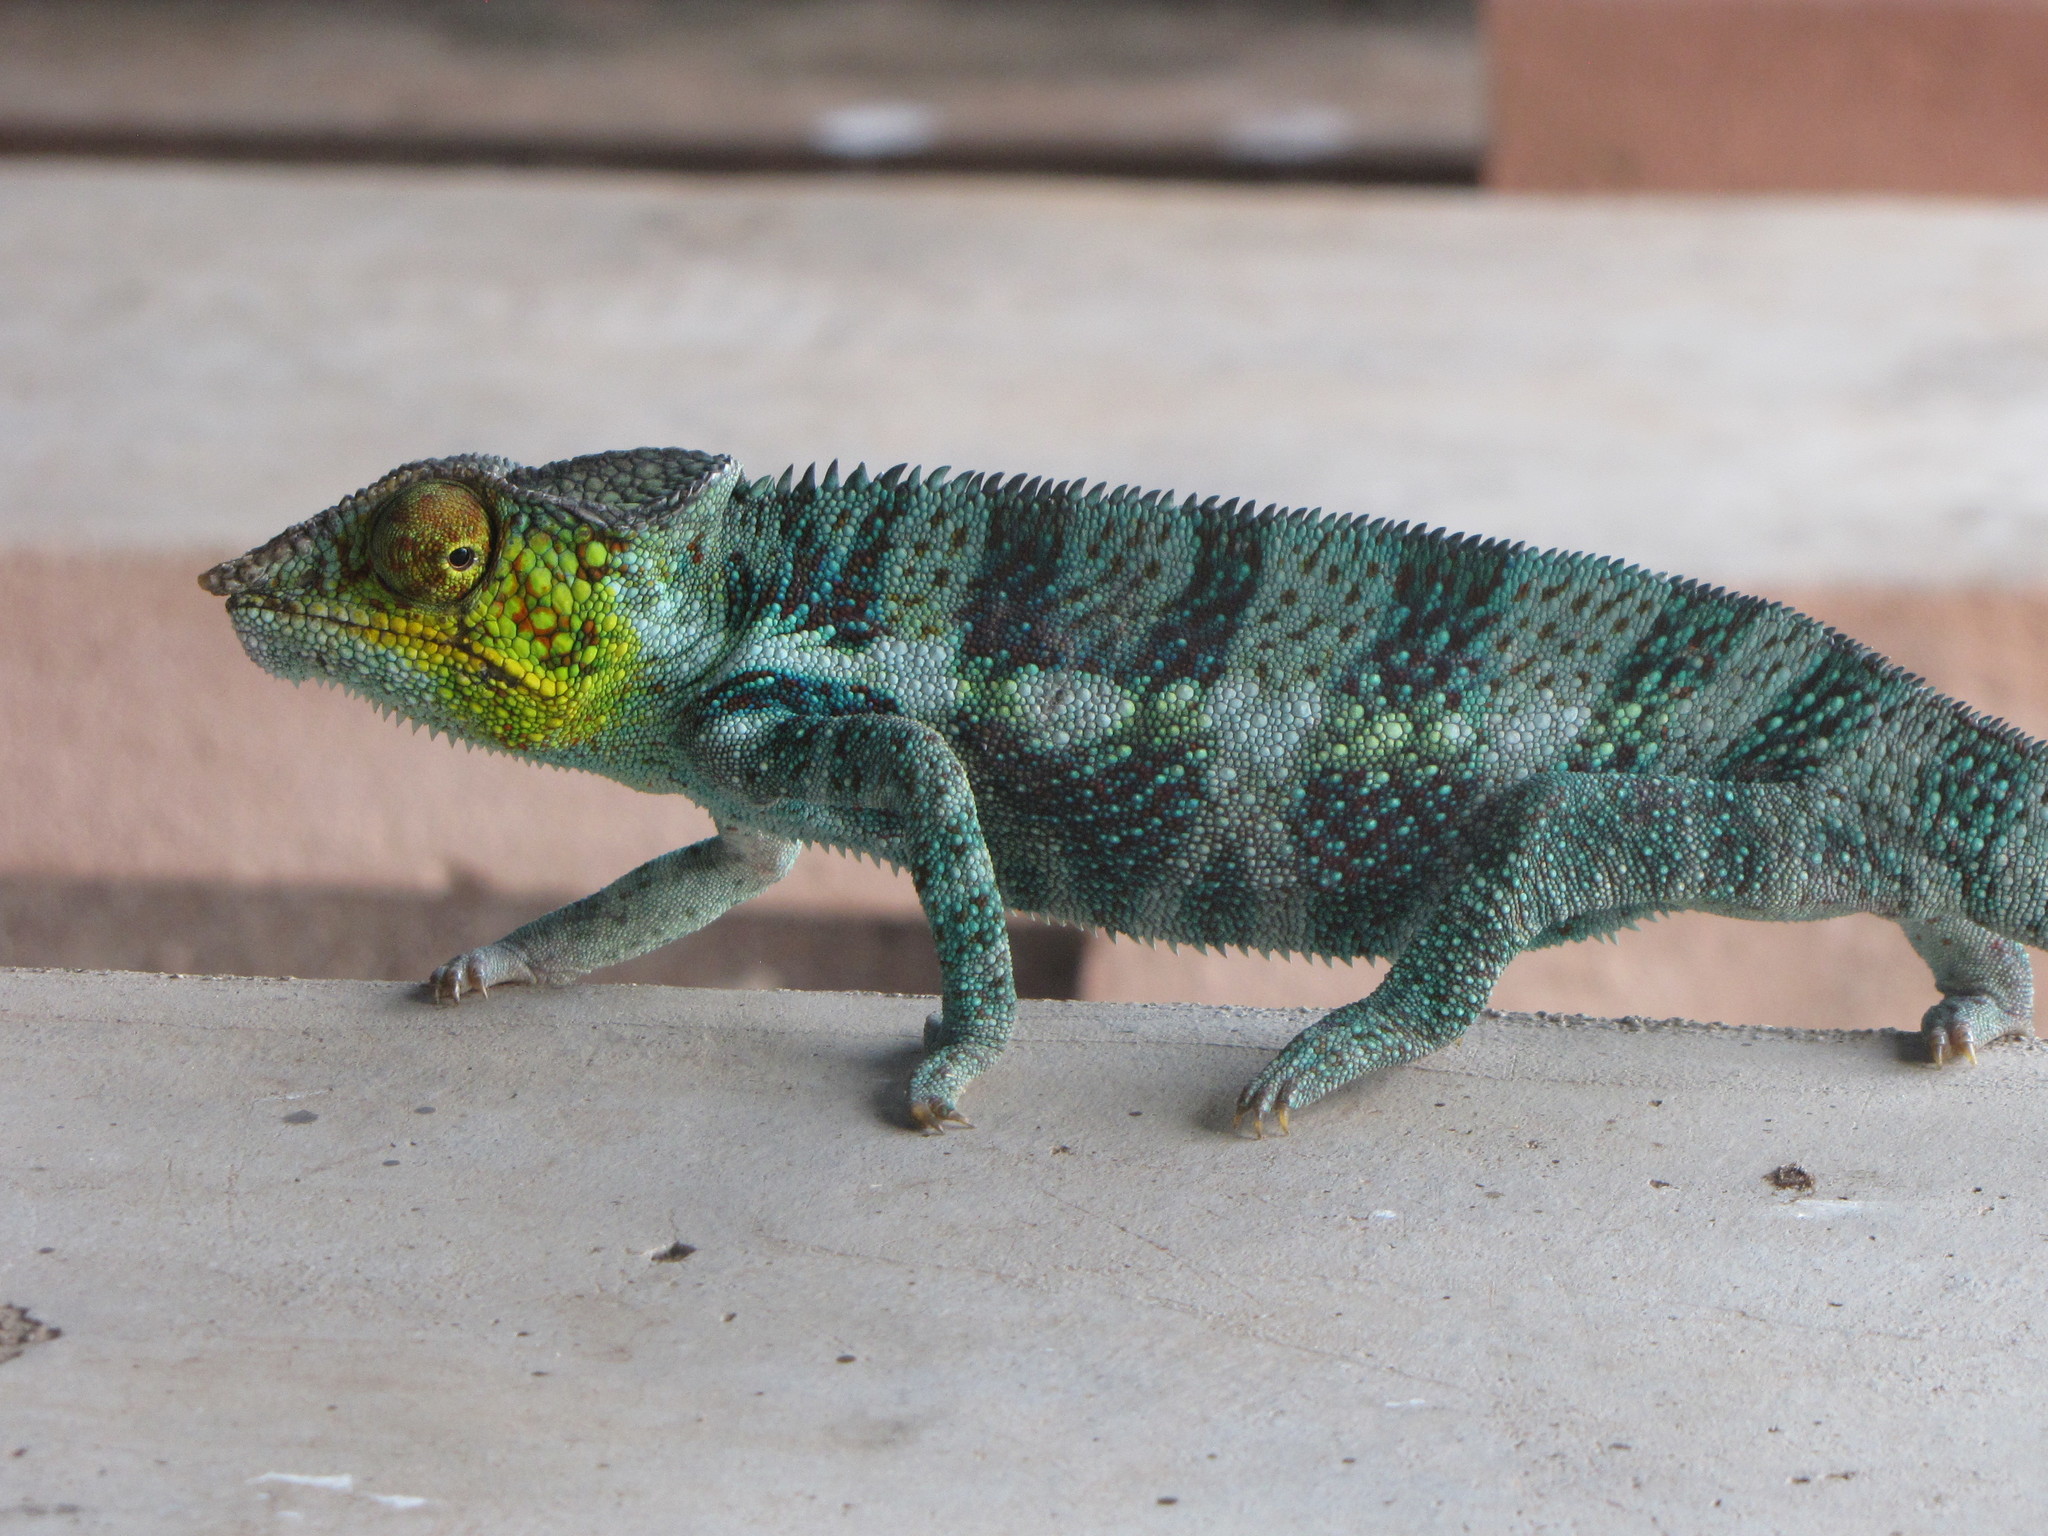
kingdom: Animalia
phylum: Chordata
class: Squamata
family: Chamaeleonidae
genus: Furcifer
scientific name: Furcifer pardalis
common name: Panther chameleon
